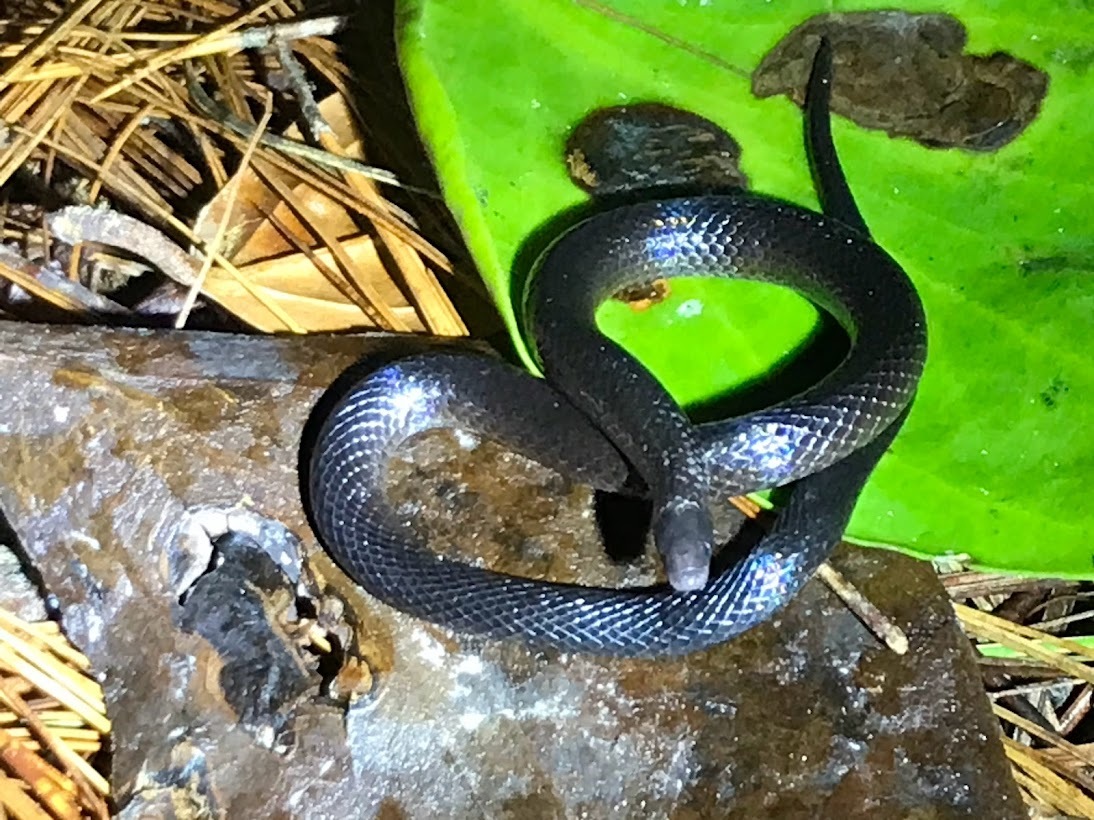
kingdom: Animalia
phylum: Chordata
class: Squamata
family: Colubridae
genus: Geophis
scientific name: Geophis nephodrymus
